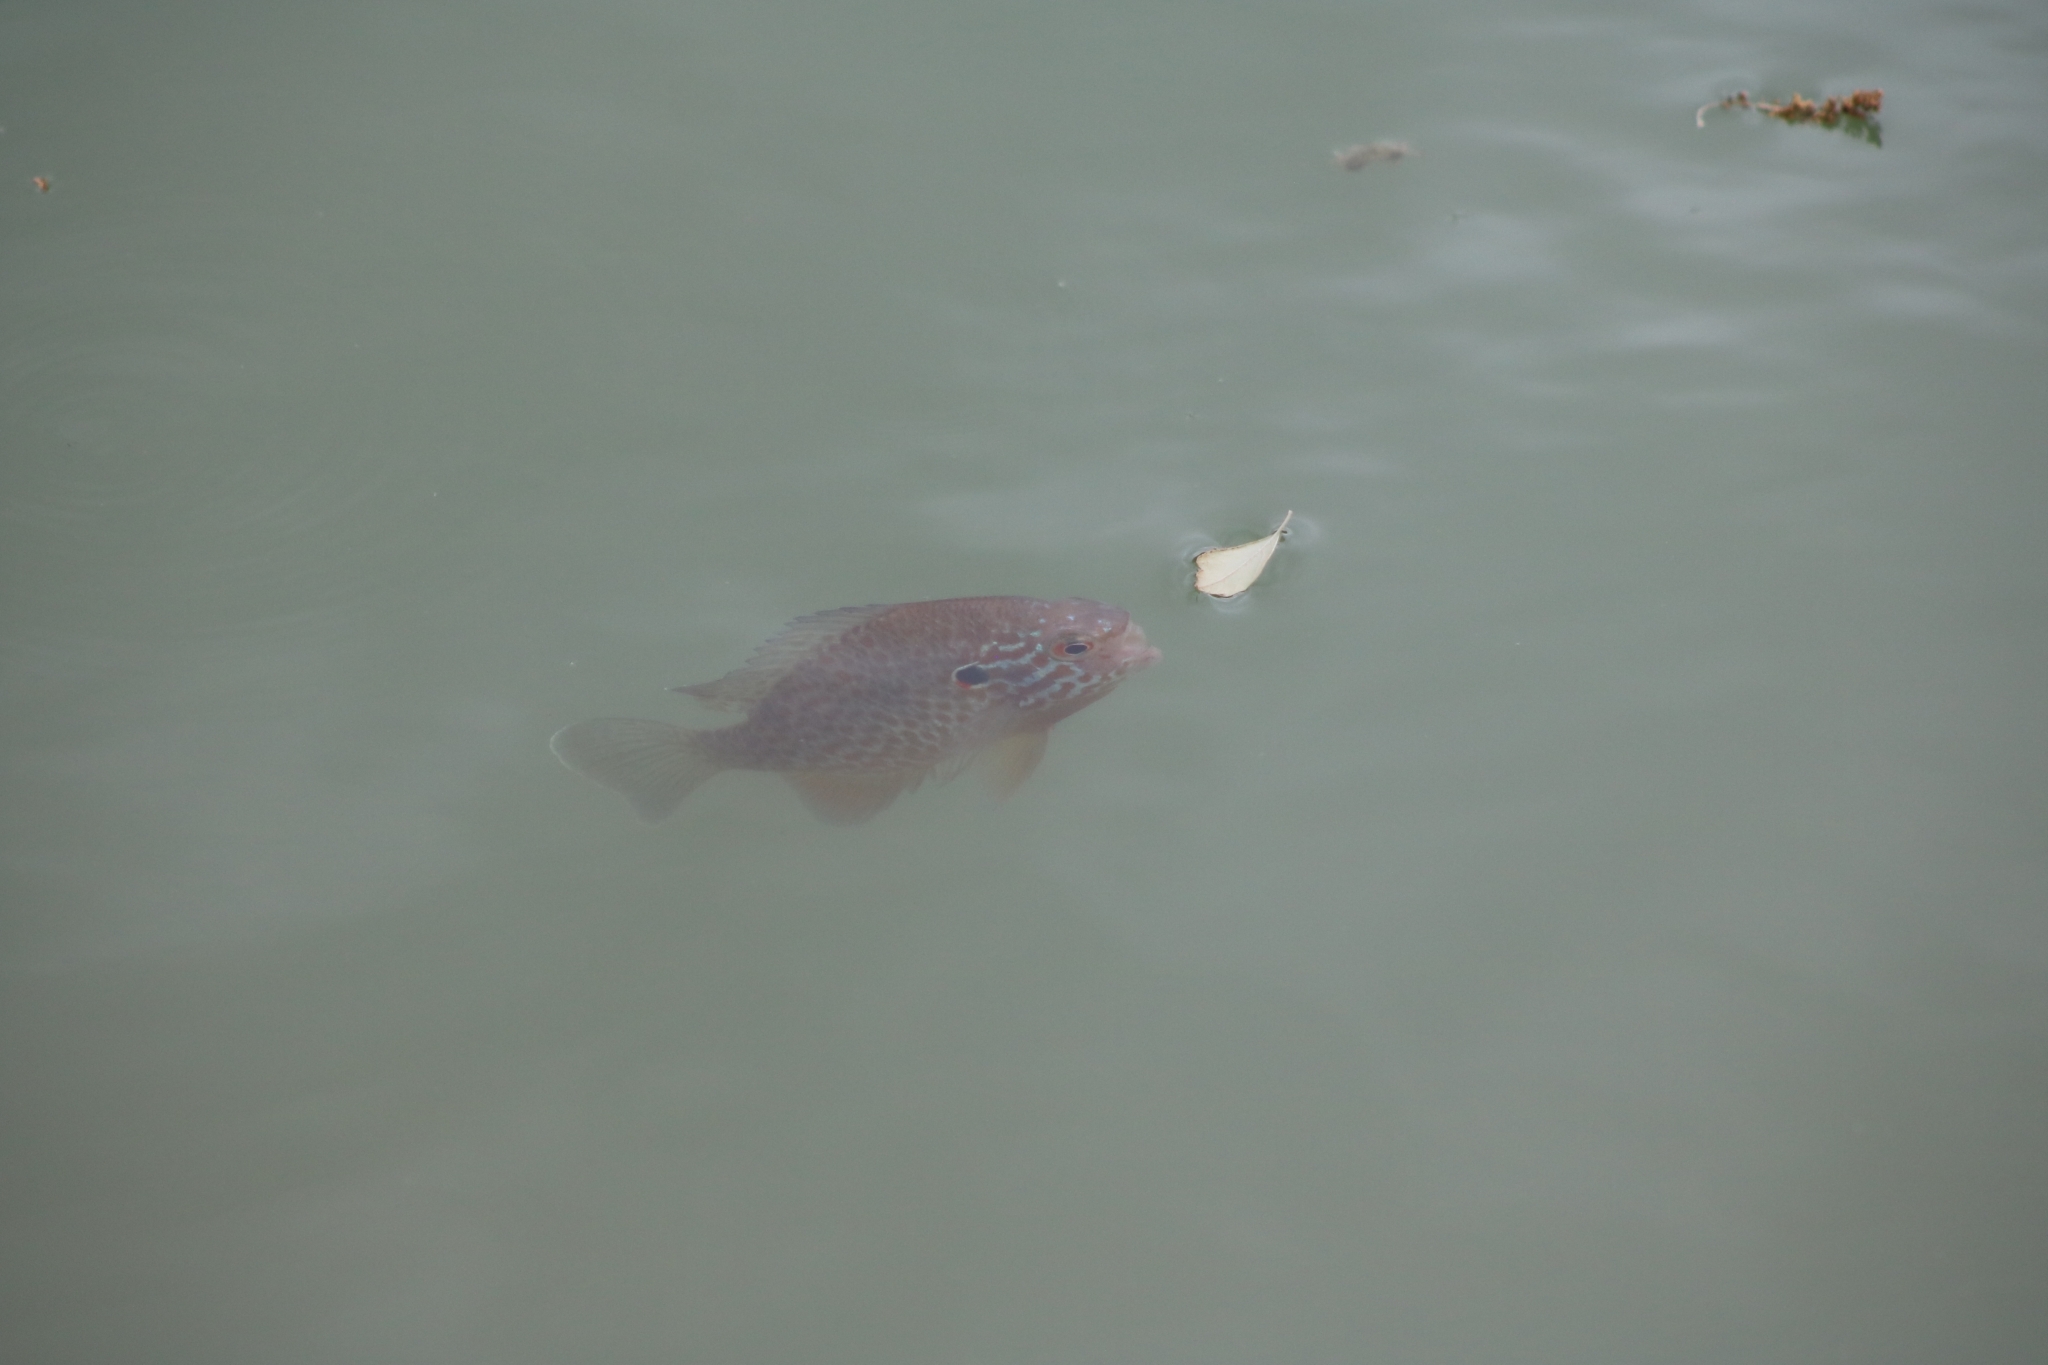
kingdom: Animalia
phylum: Chordata
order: Perciformes
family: Centrarchidae
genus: Lepomis
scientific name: Lepomis gibbosus
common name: Pumpkinseed
